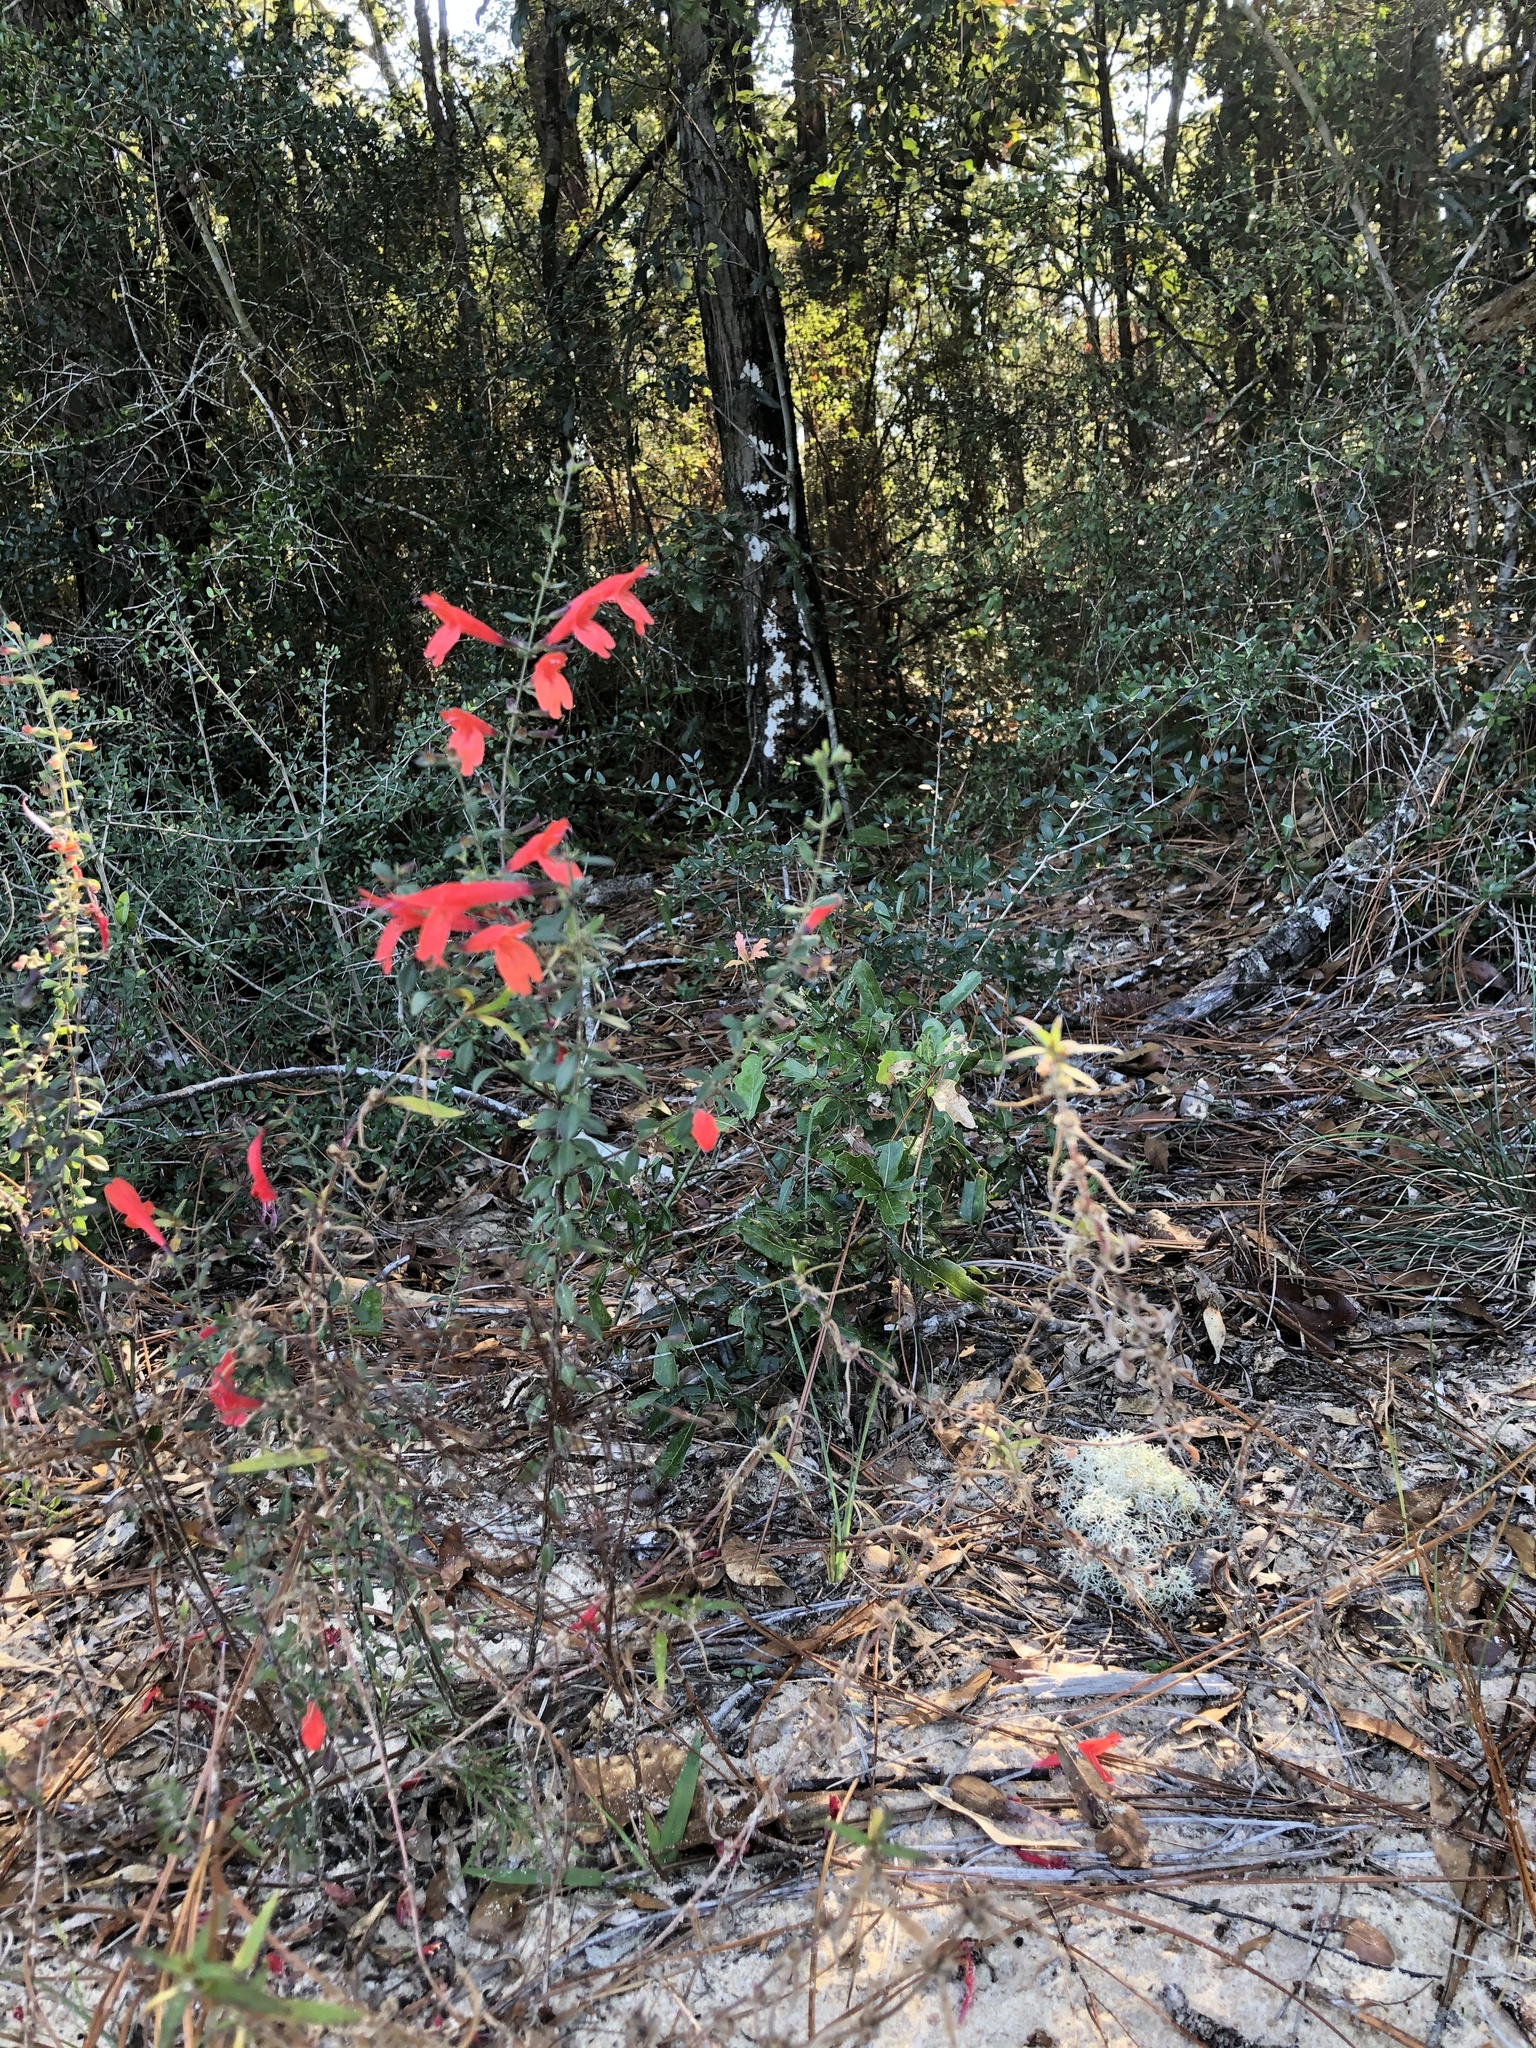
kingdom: Plantae
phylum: Tracheophyta
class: Magnoliopsida
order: Lamiales
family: Lamiaceae
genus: Salvia
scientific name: Salvia coccinea
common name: Blood sage
